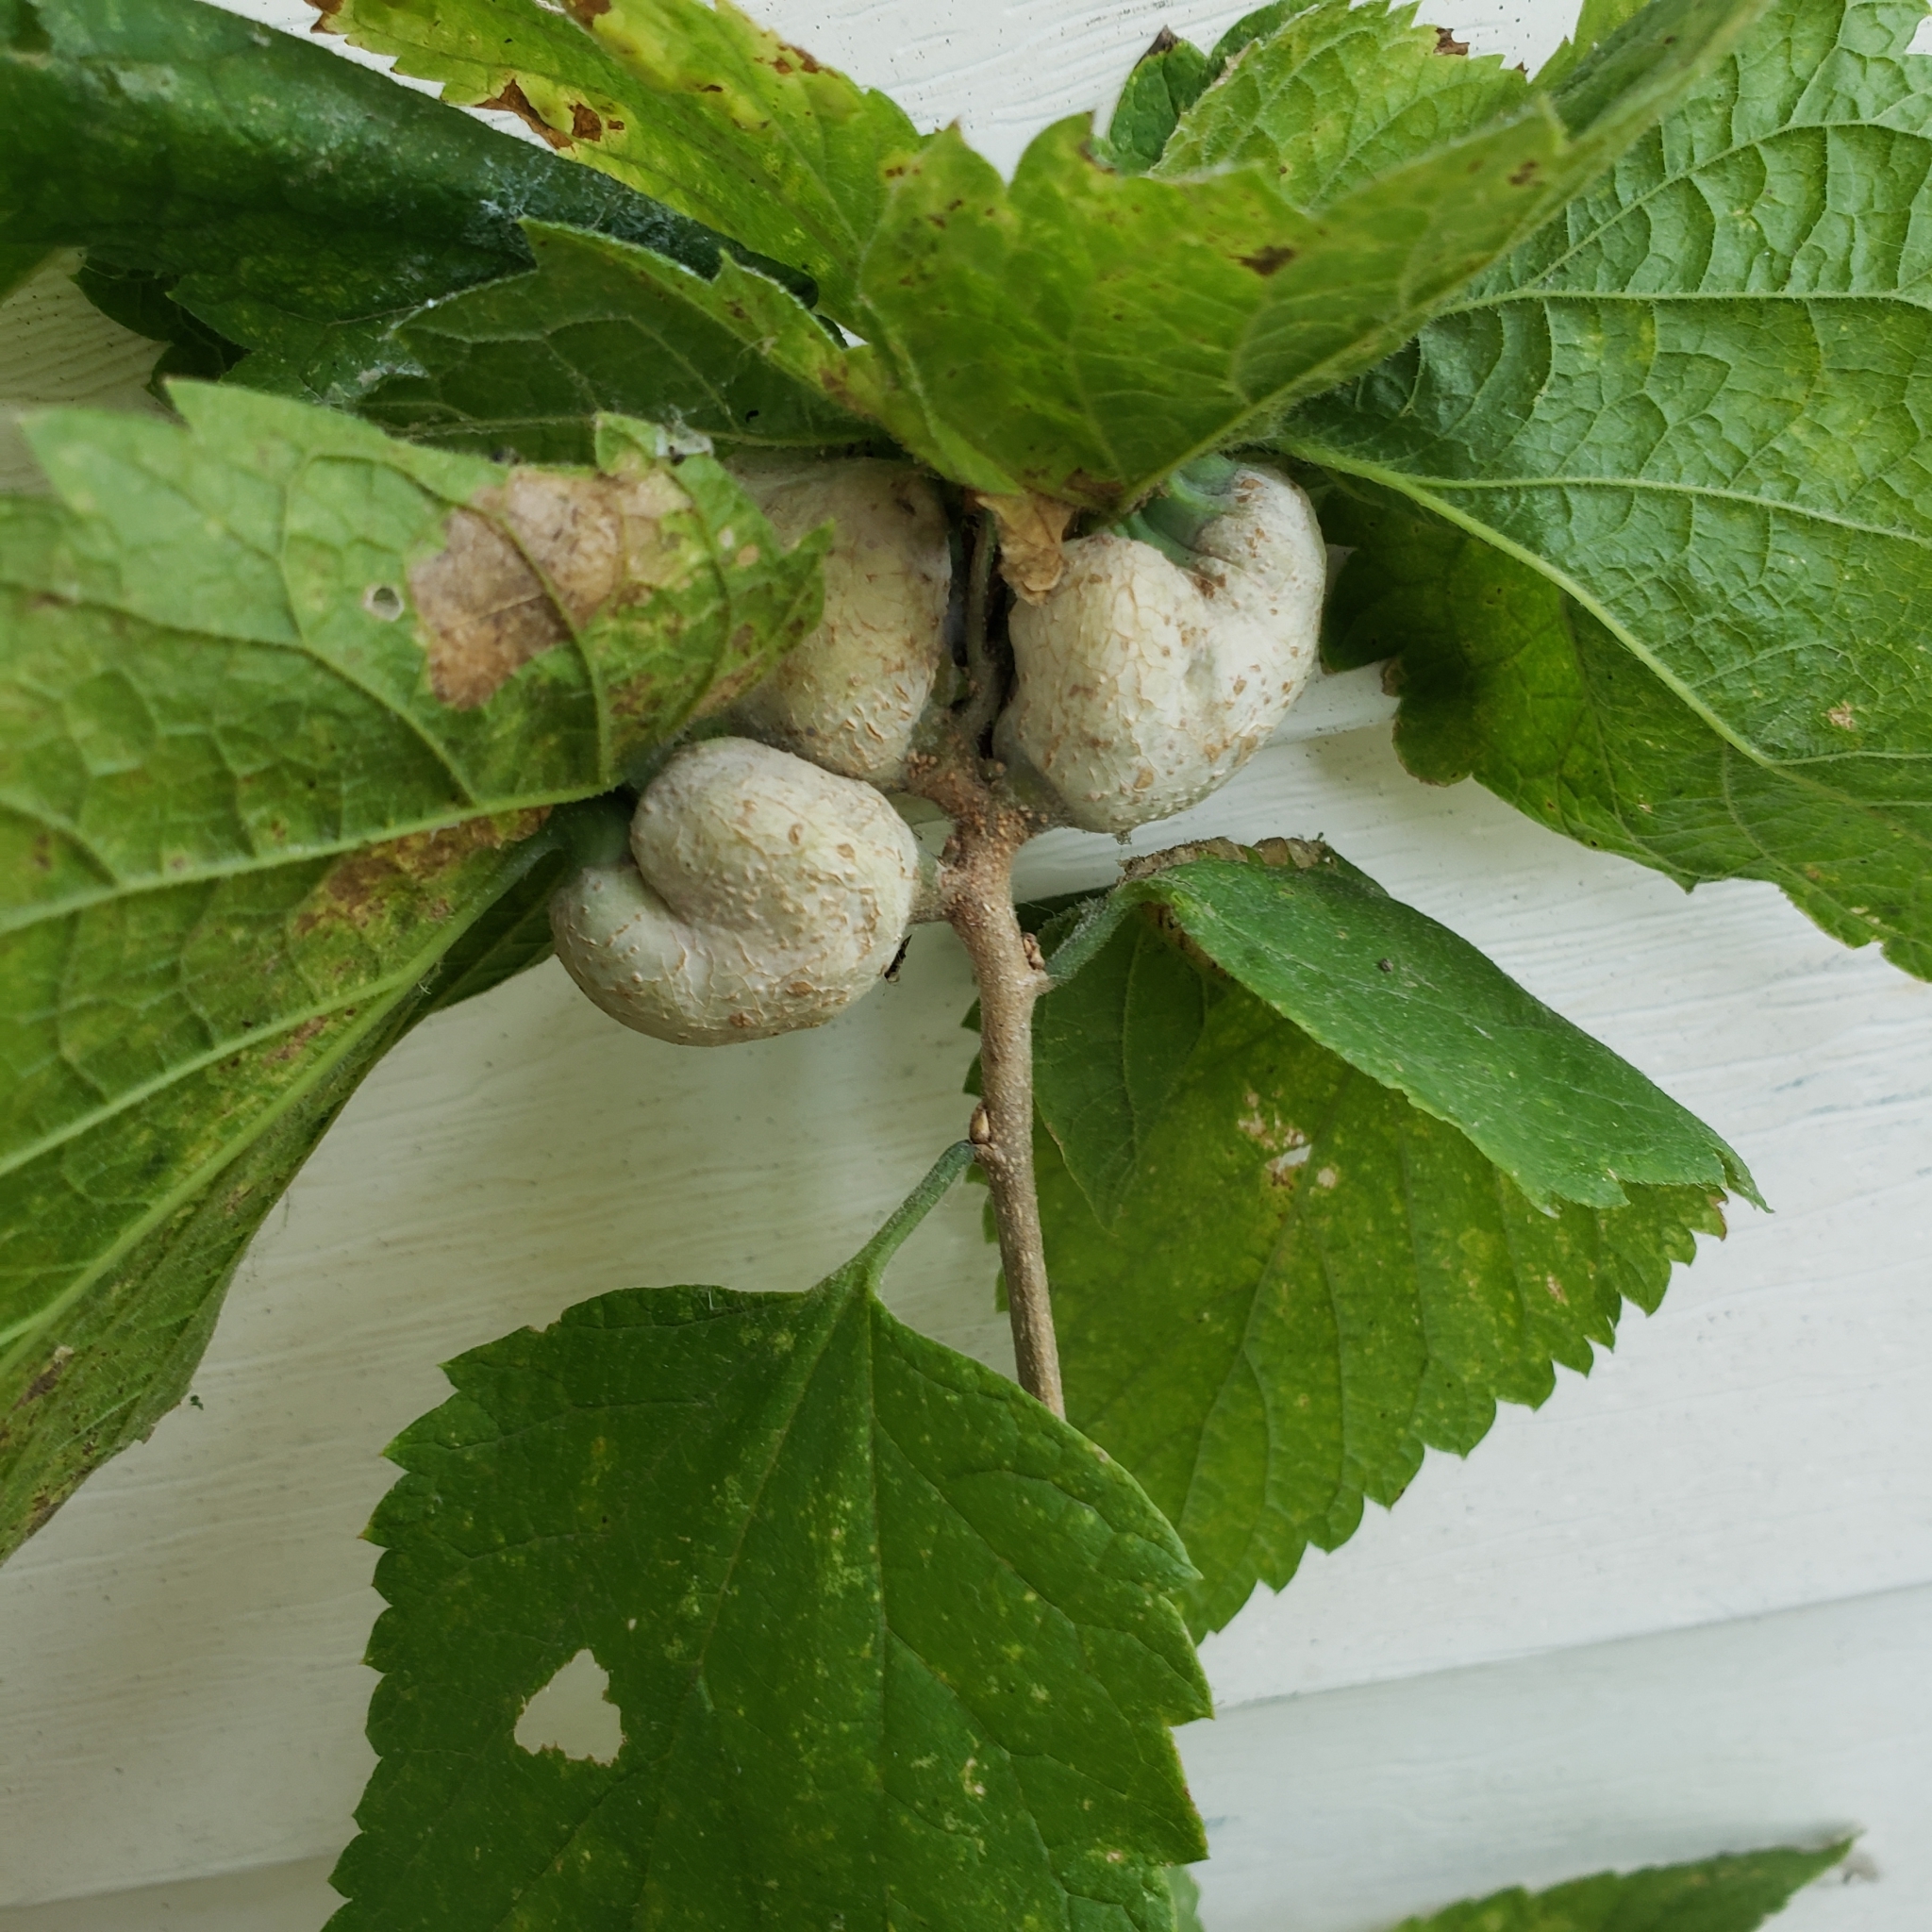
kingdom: Animalia
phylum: Arthropoda
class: Insecta
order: Hemiptera
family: Aphalaridae
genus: Pachypsylla
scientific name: Pachypsylla venusta
